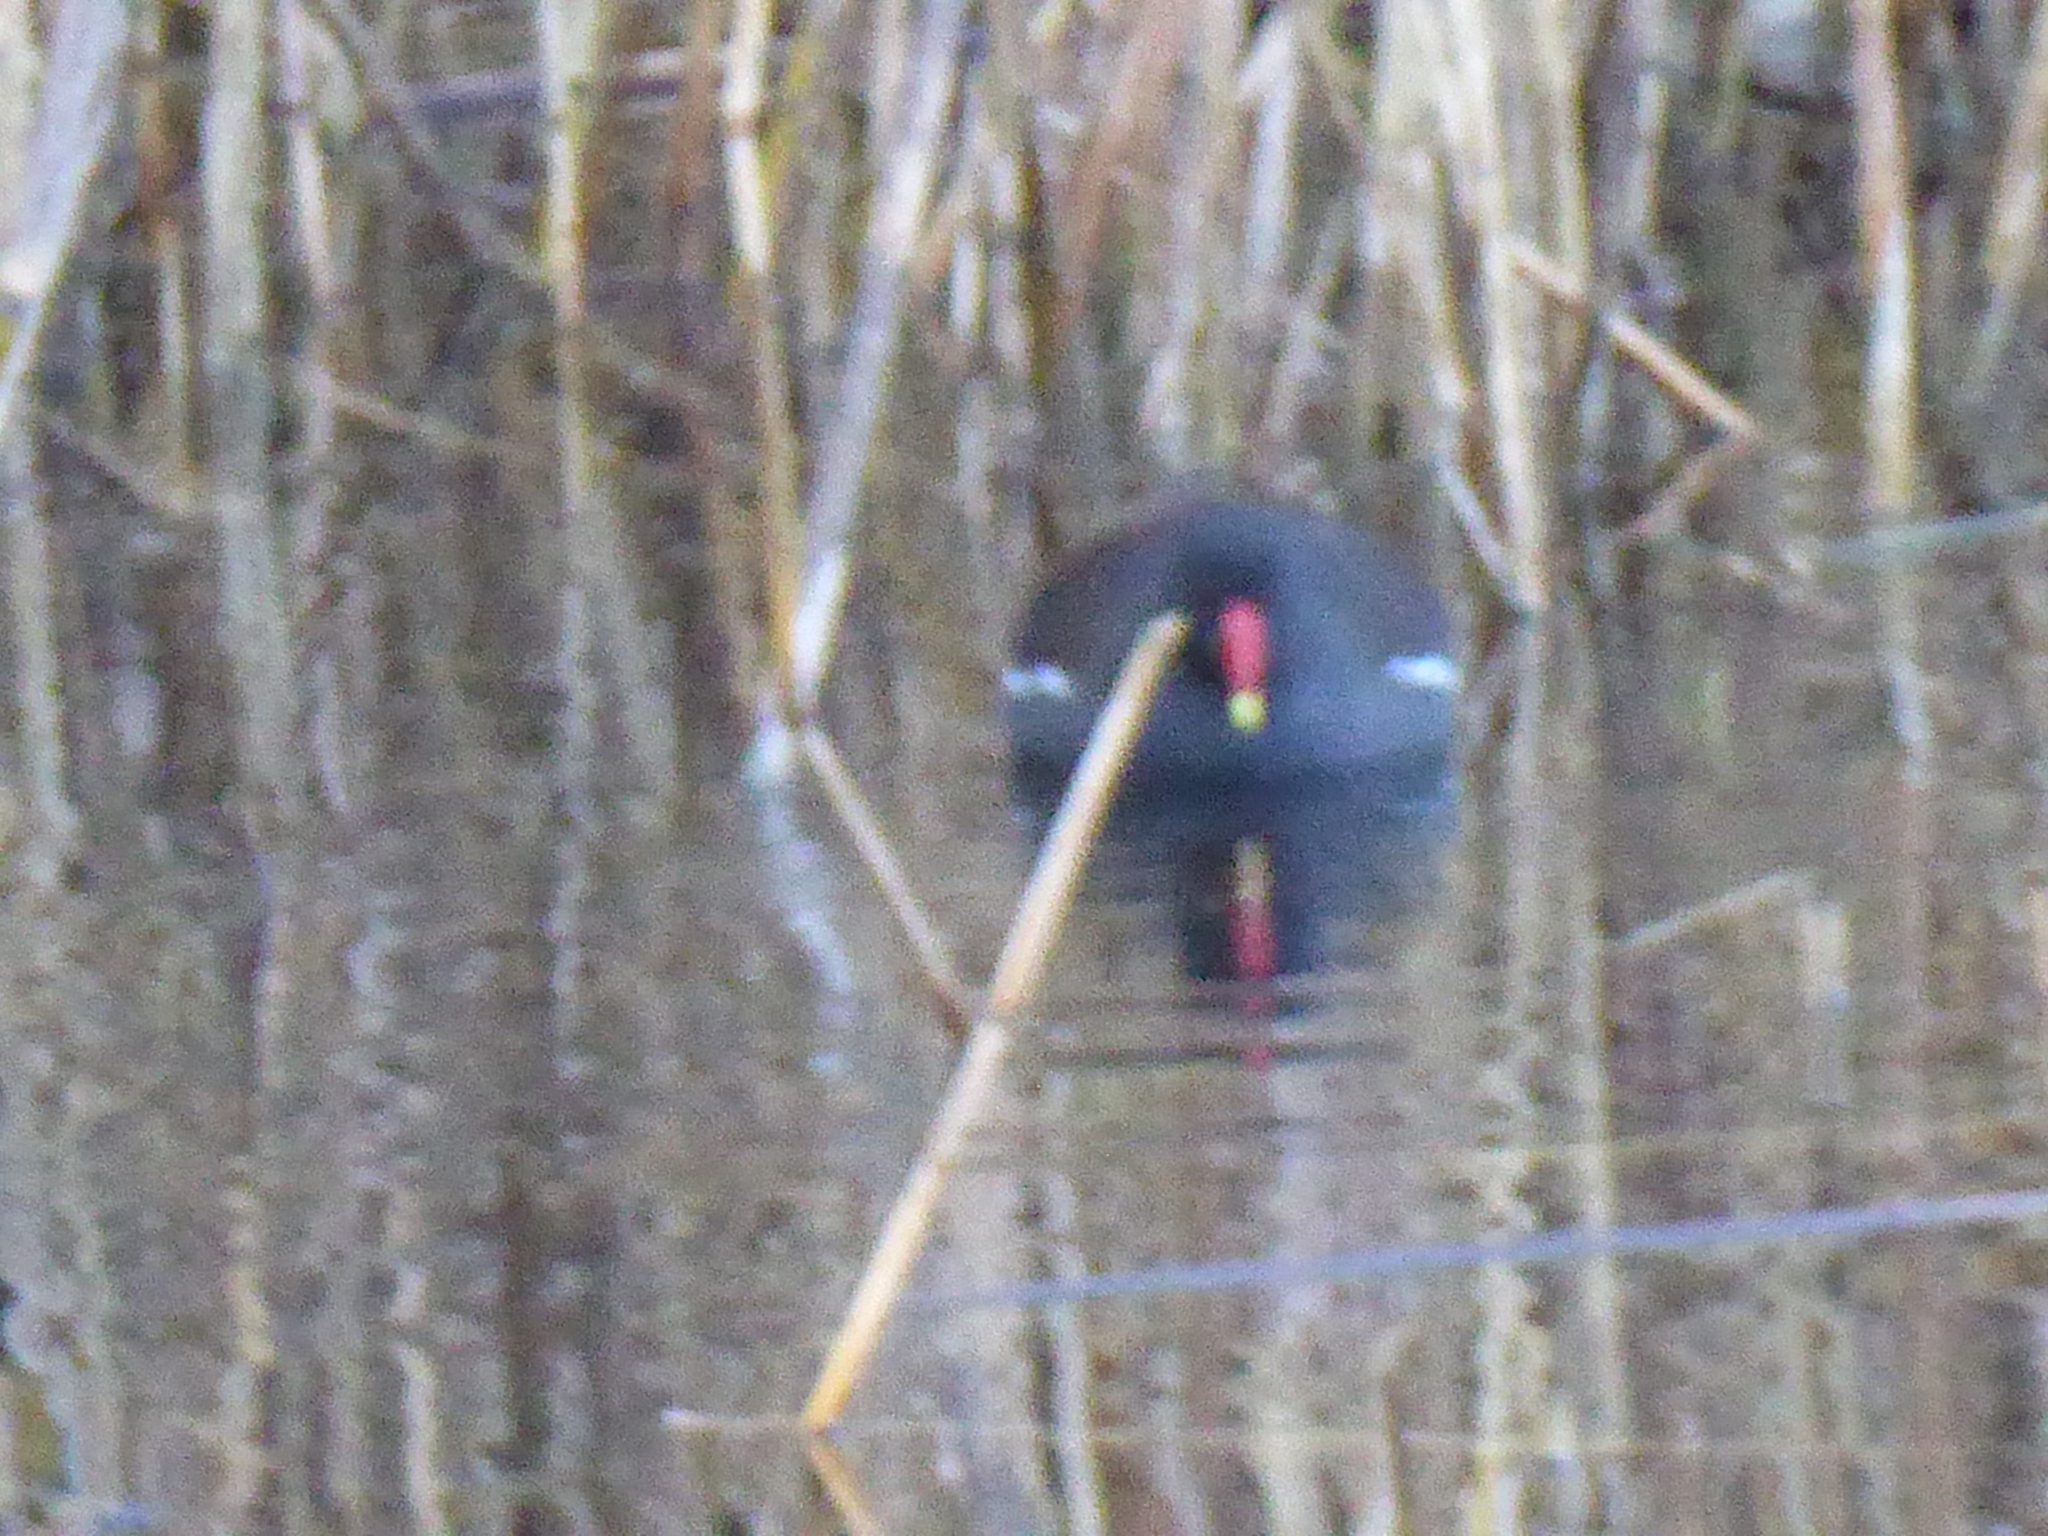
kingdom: Animalia
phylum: Chordata
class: Aves
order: Gruiformes
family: Rallidae
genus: Gallinula
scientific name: Gallinula chloropus
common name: Common moorhen
